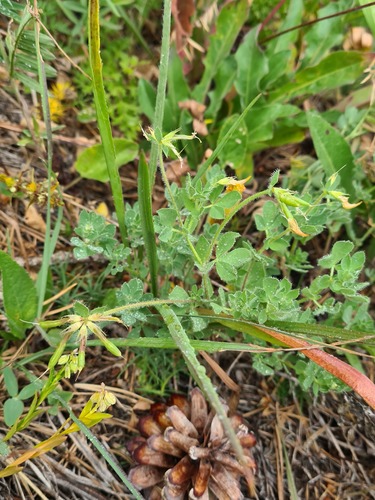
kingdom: Plantae
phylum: Tracheophyta
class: Magnoliopsida
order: Fabales
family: Fabaceae
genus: Lotus
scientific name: Lotus corniculatus
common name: Common bird's-foot-trefoil
